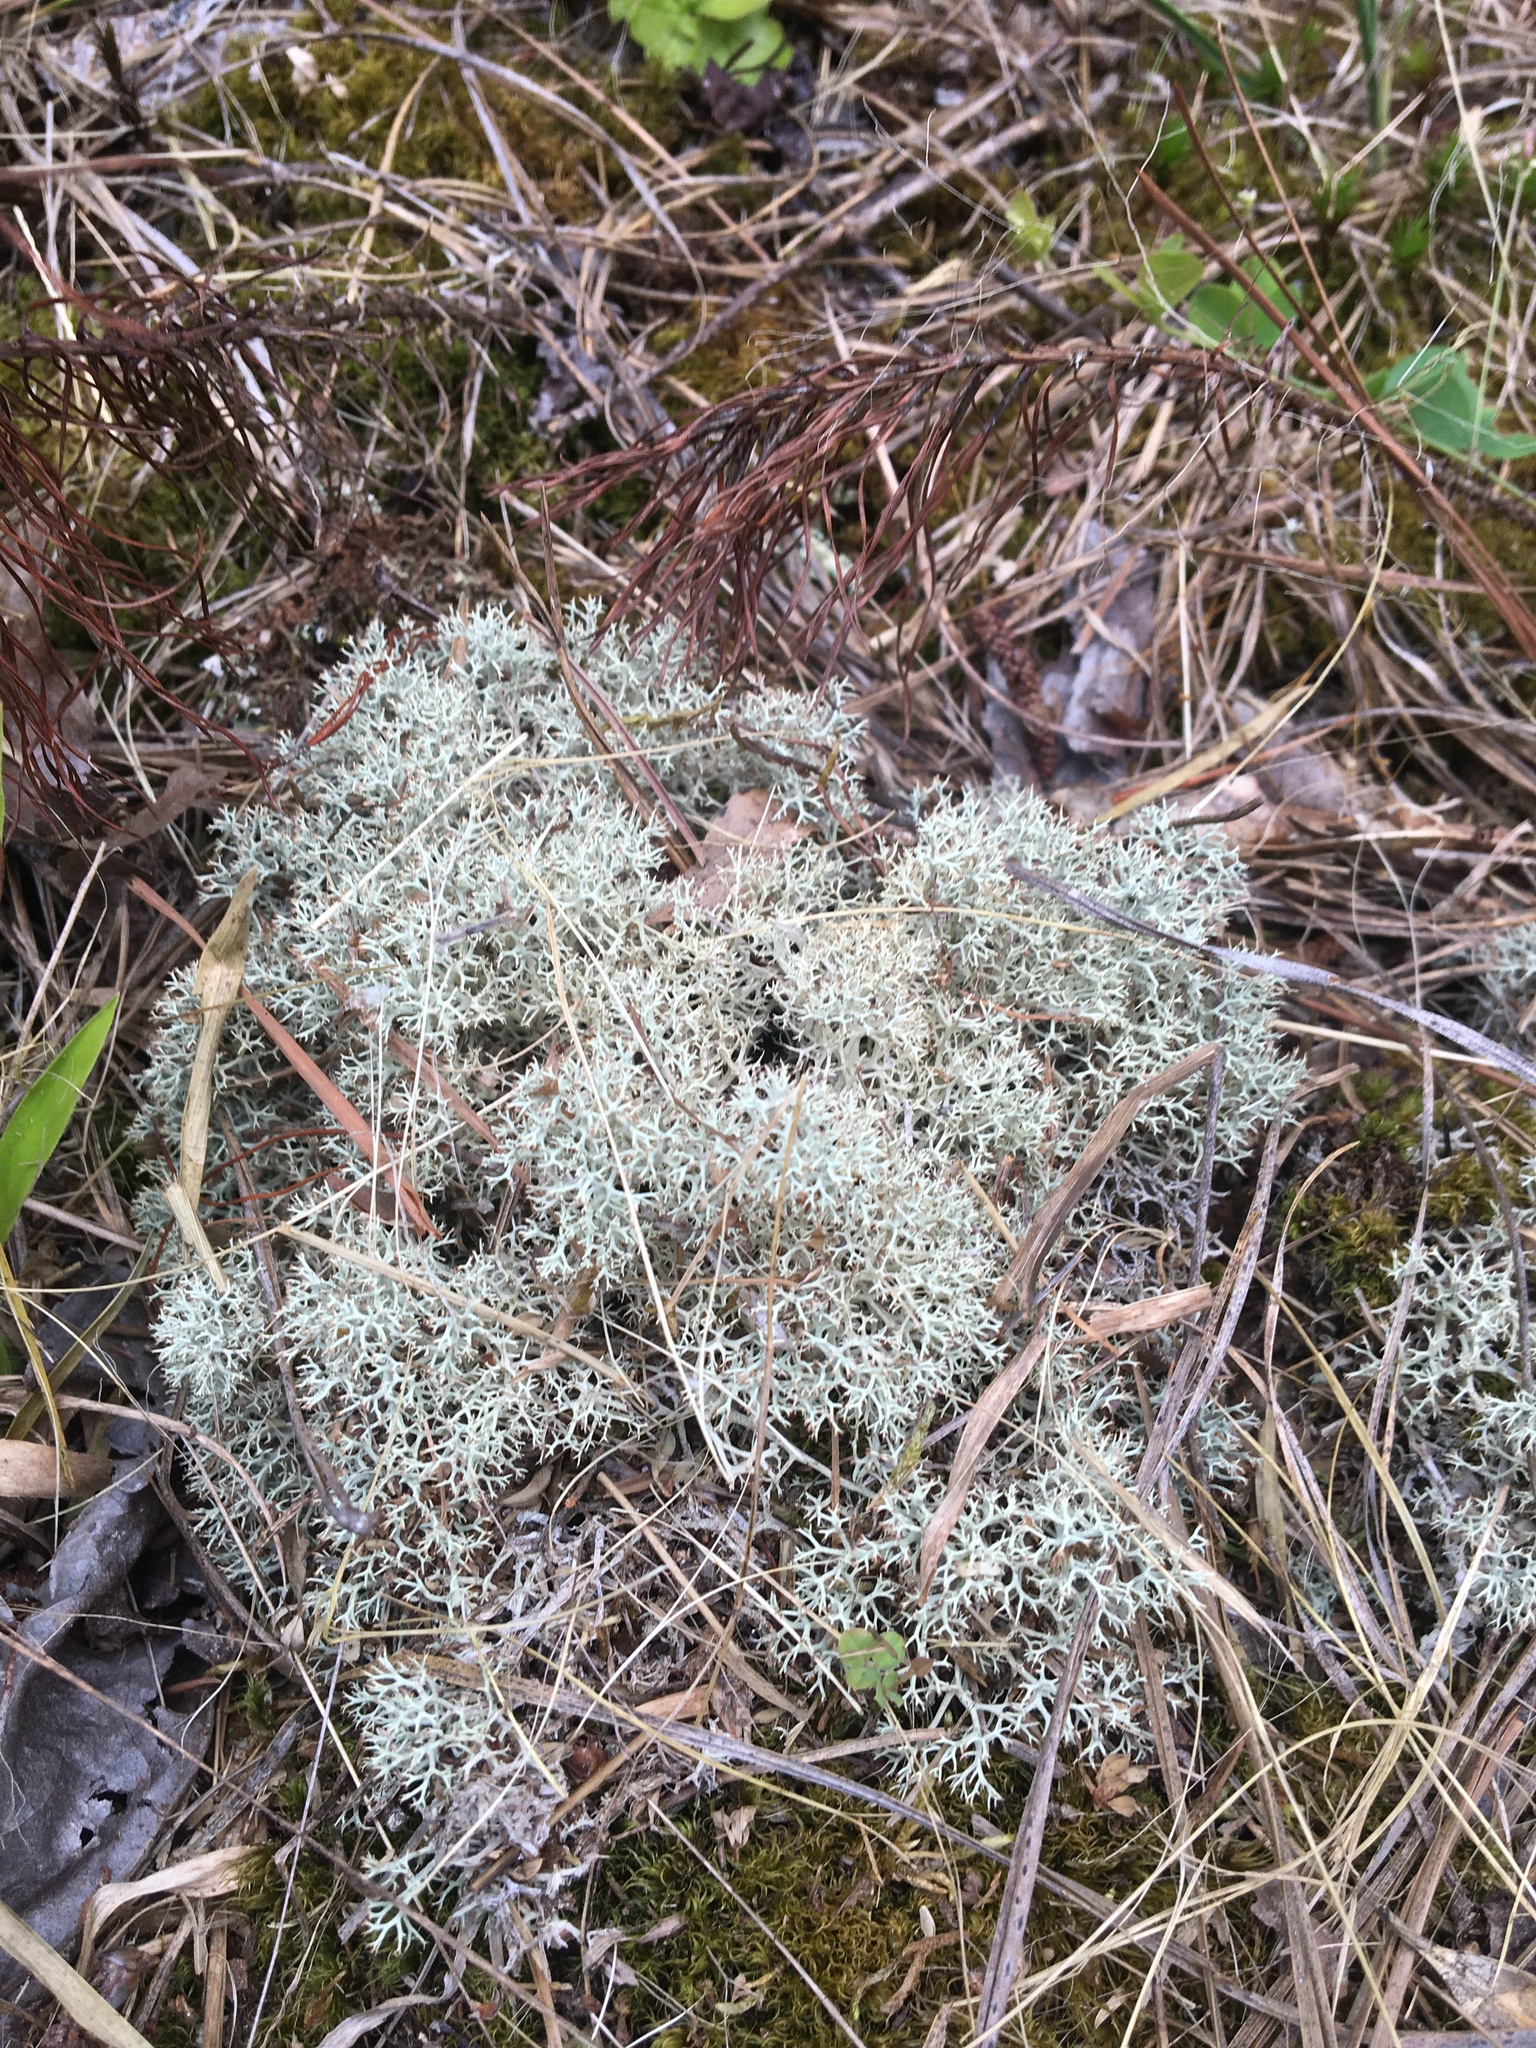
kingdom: Fungi
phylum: Ascomycota
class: Lecanoromycetes
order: Lecanorales
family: Cladoniaceae
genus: Cladonia
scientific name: Cladonia subtenuis
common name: Dixie reindeer lichen
